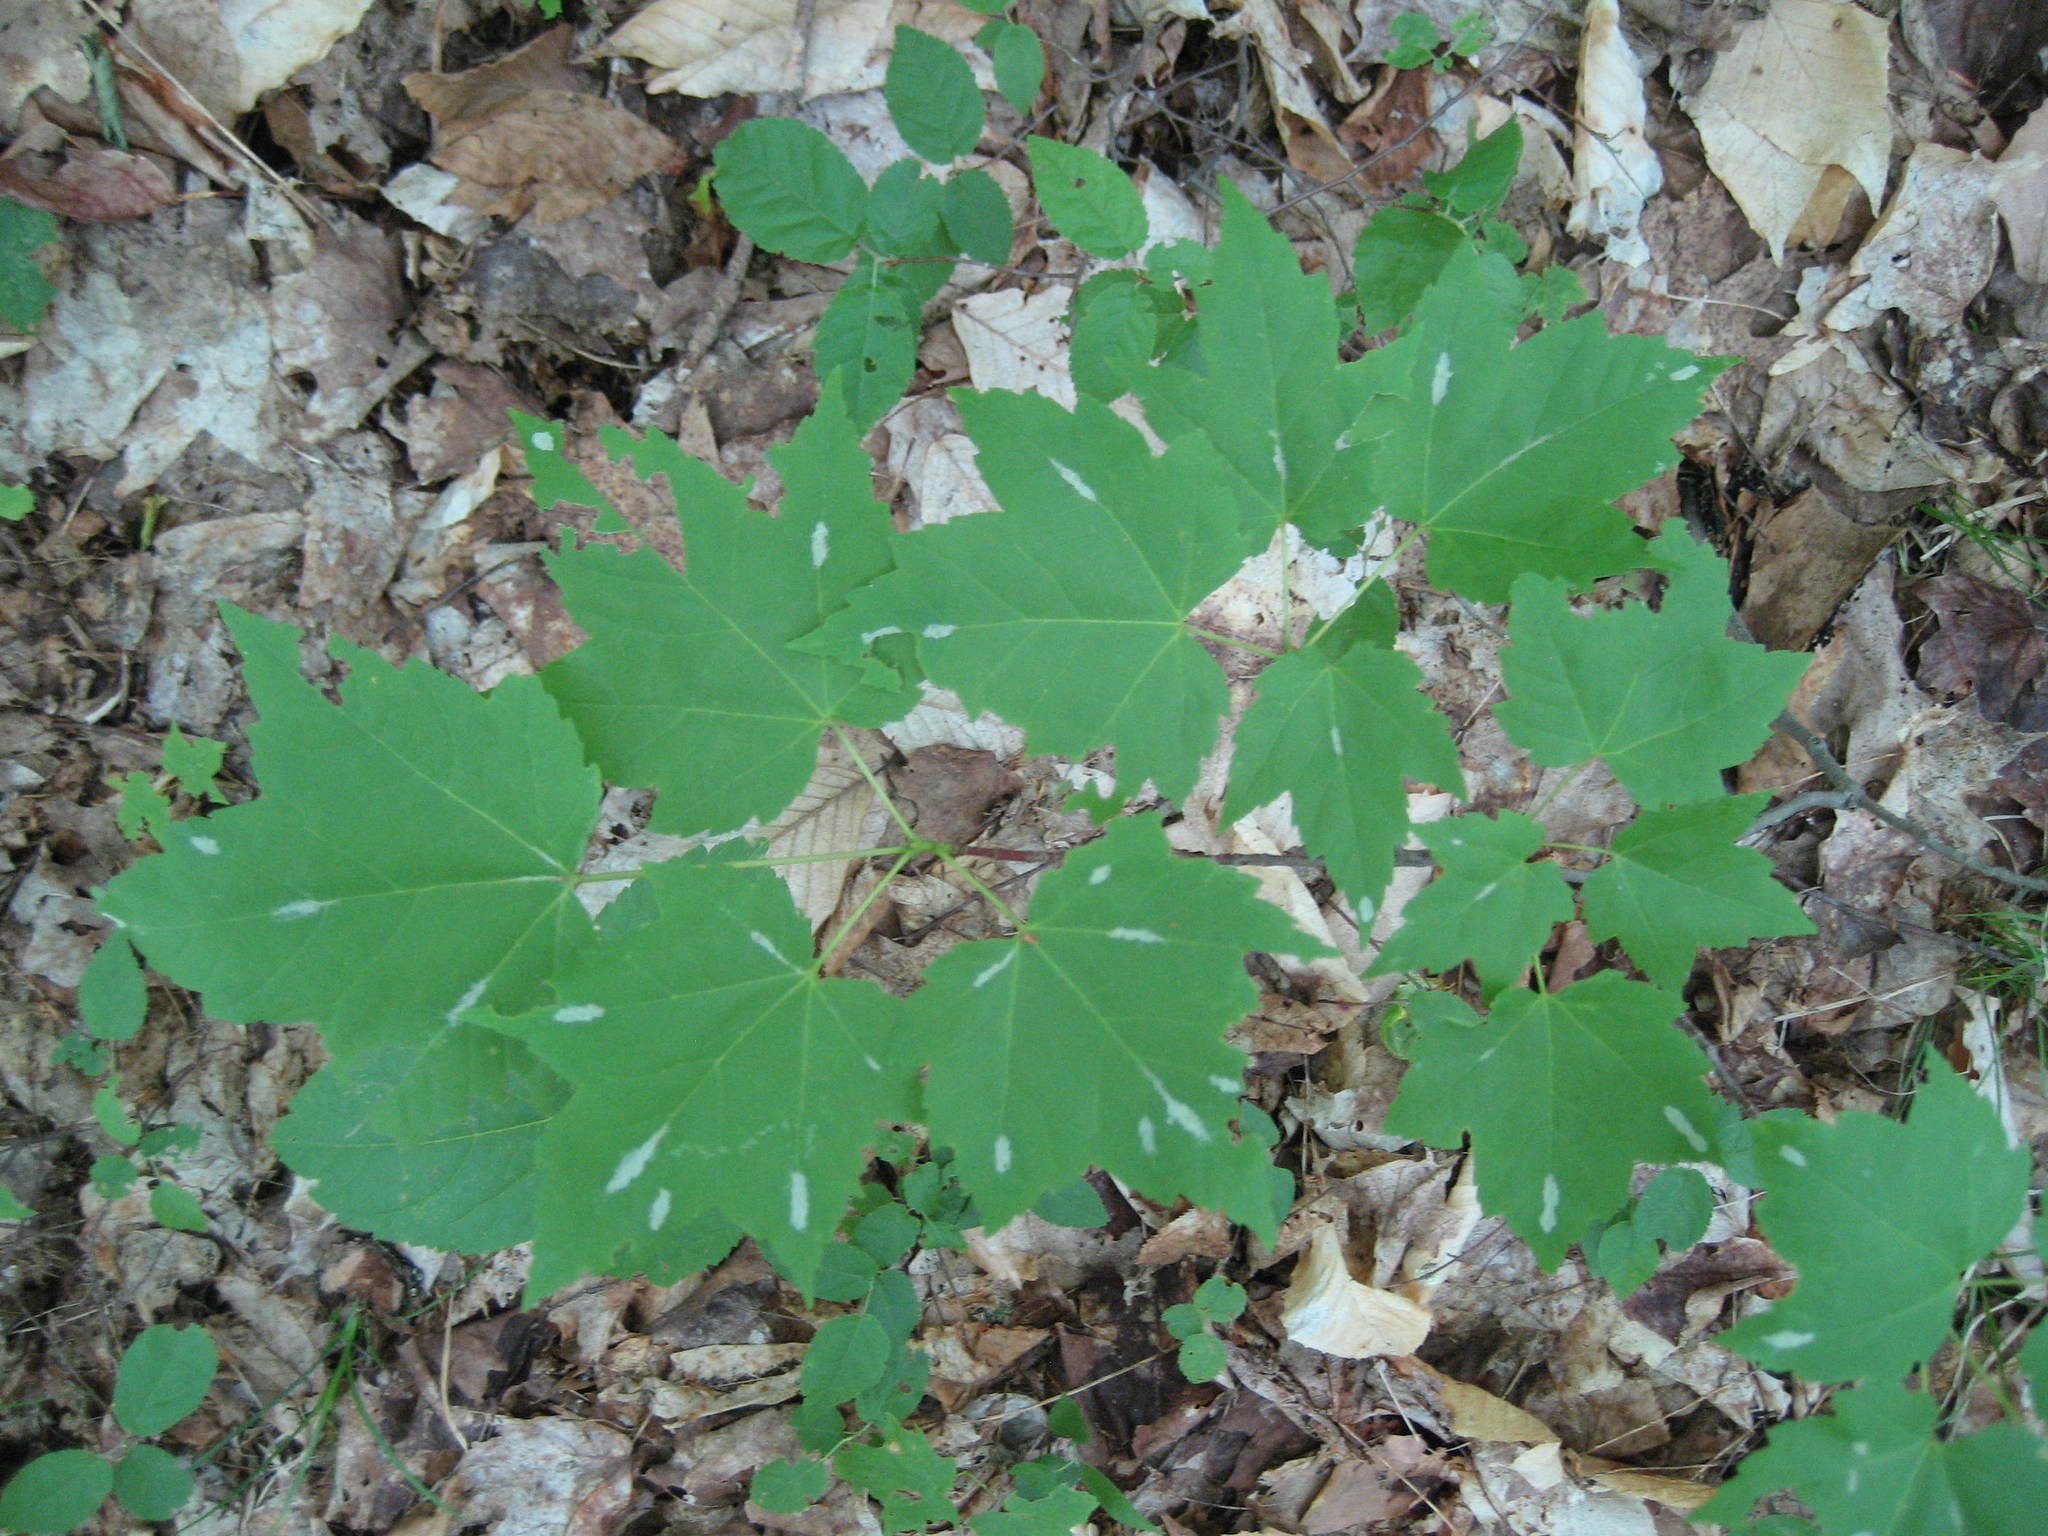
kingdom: Plantae
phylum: Tracheophyta
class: Magnoliopsida
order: Sapindales
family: Sapindaceae
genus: Acer
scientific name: Acer rubrum
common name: Red maple
